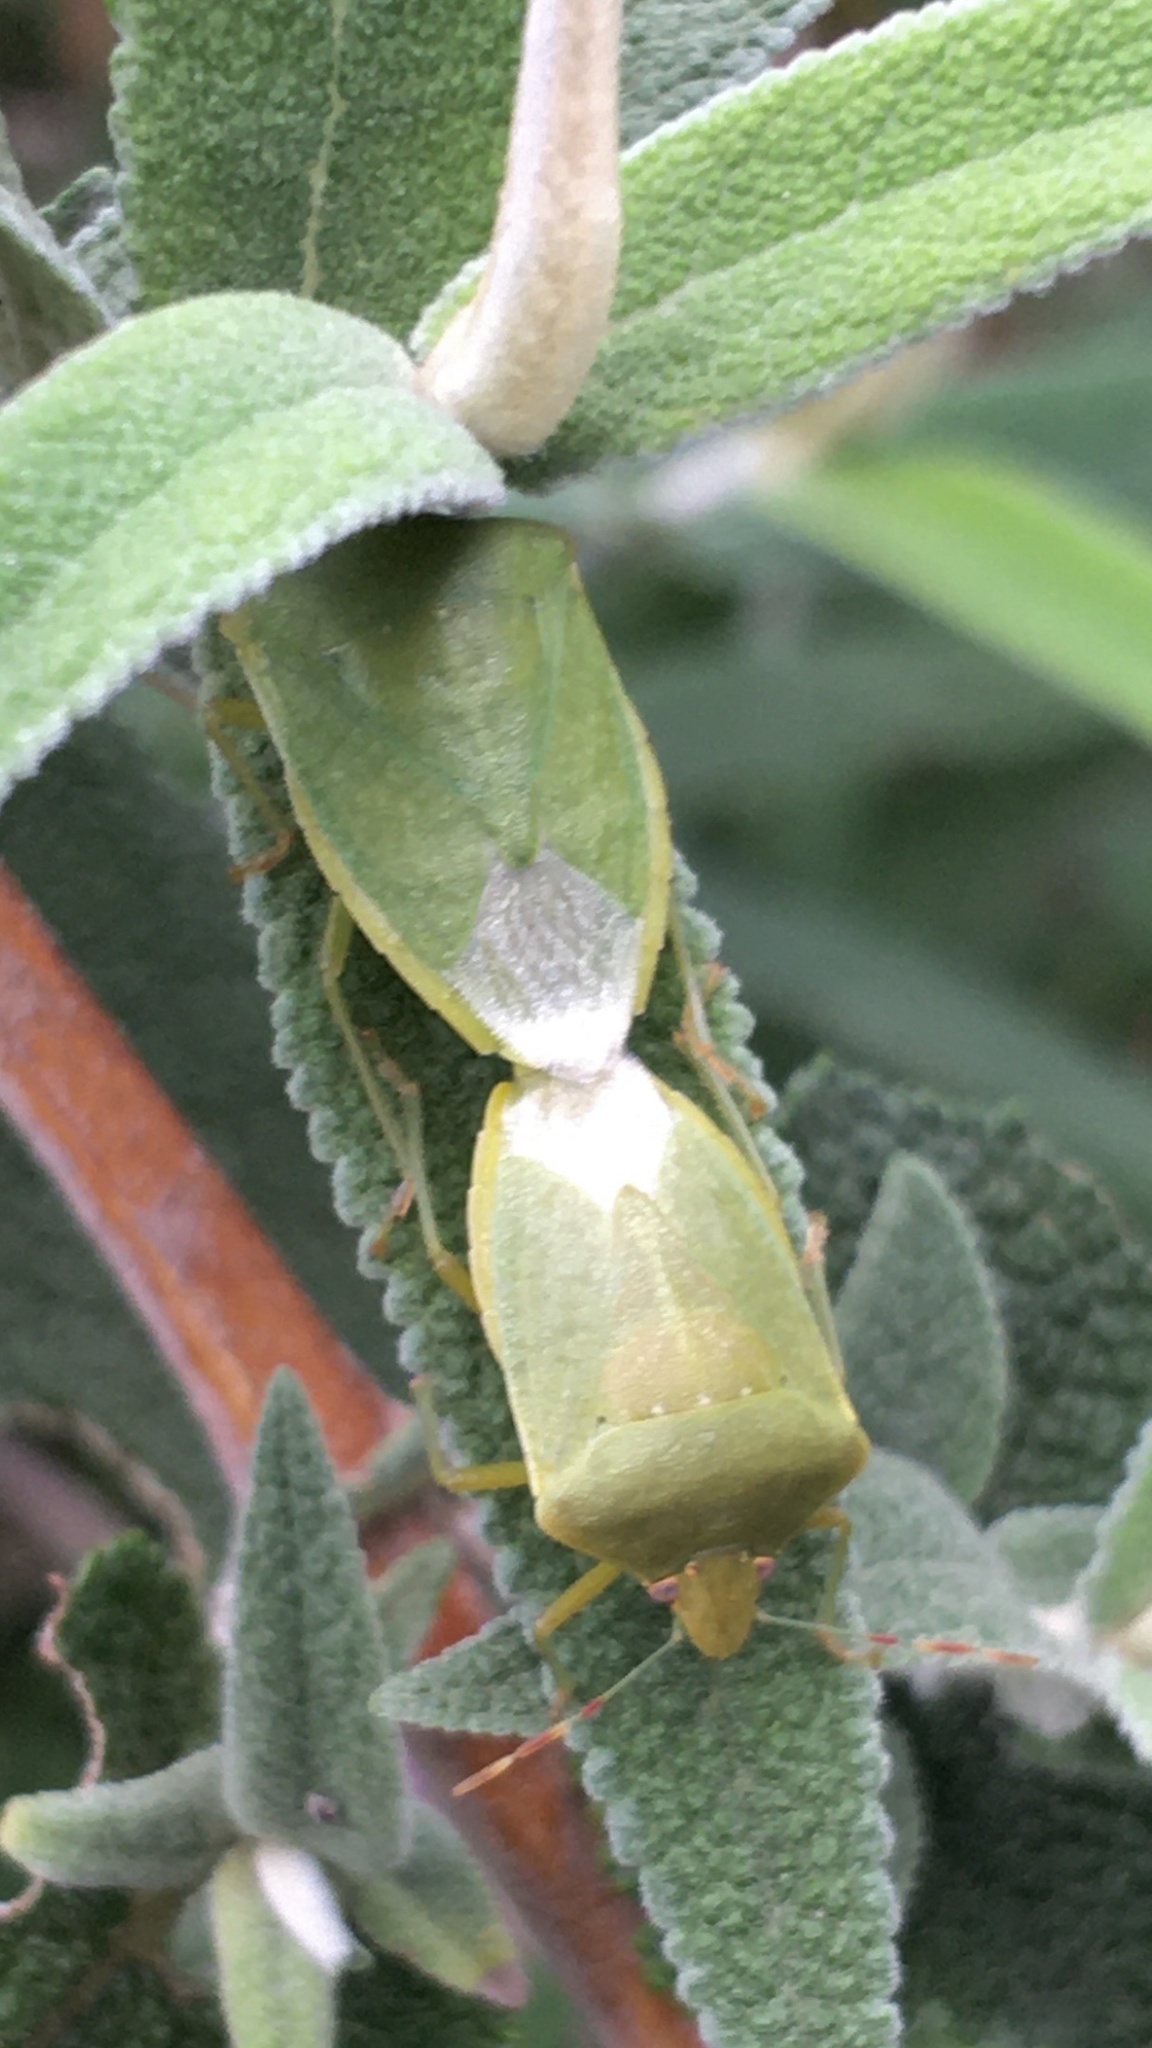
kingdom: Animalia
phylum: Arthropoda
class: Insecta
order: Hemiptera
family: Pentatomidae
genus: Nezara
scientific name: Nezara viridula
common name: Southern green stink bug
